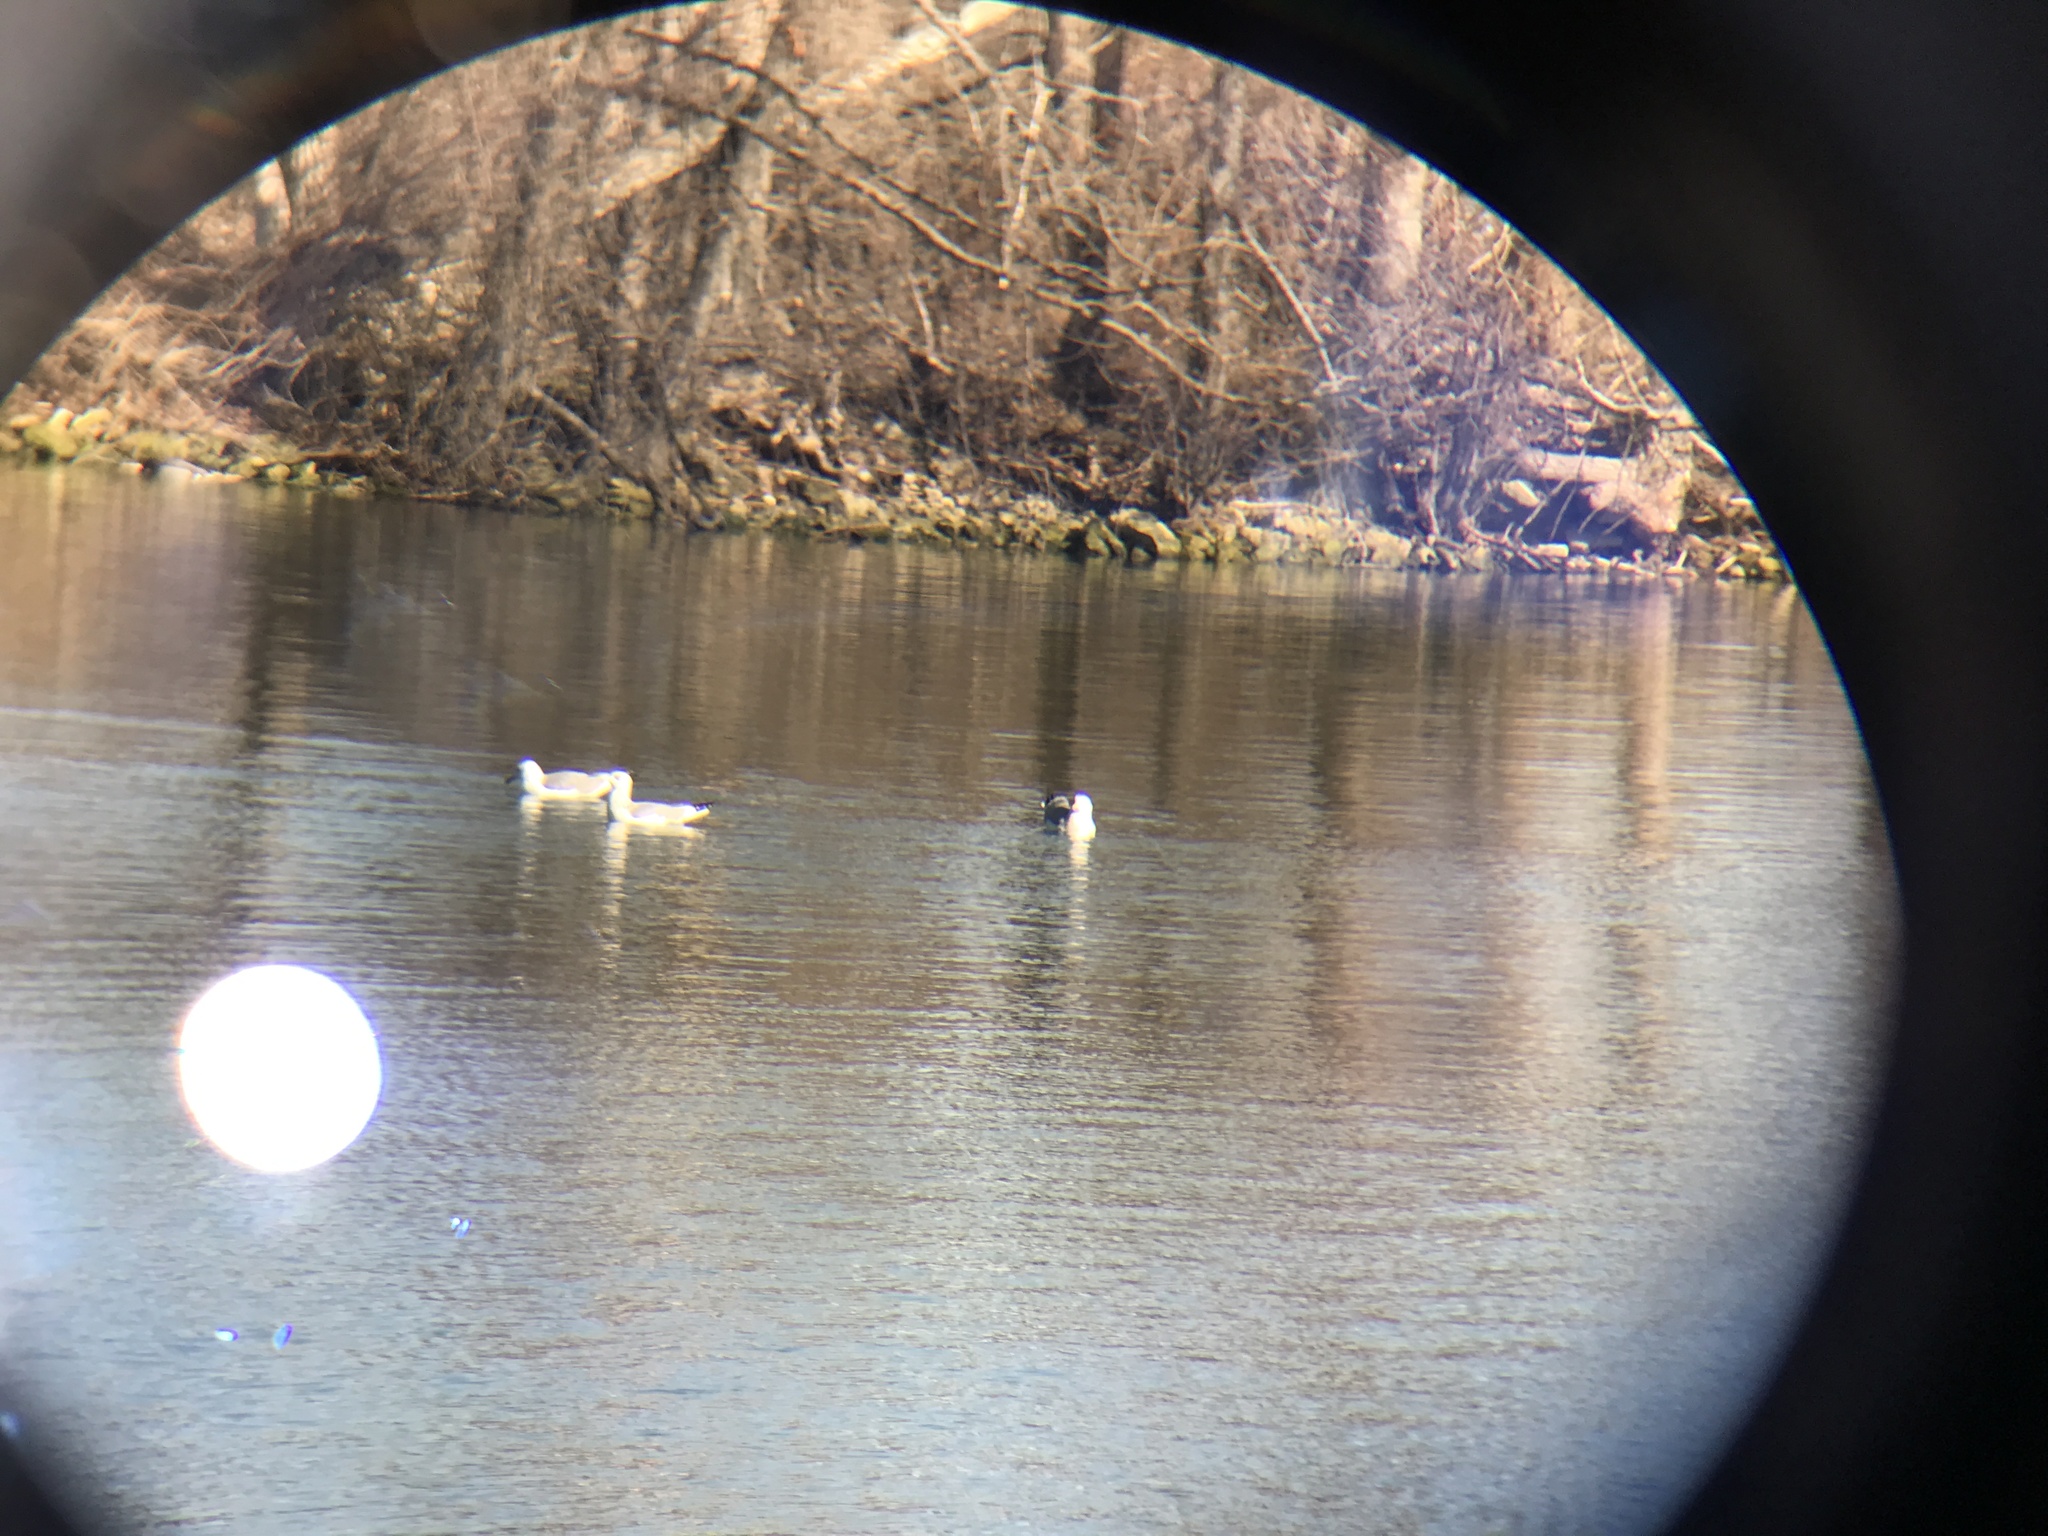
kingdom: Animalia
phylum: Chordata
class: Aves
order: Charadriiformes
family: Laridae
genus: Larus
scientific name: Larus argentatus
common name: Herring gull
